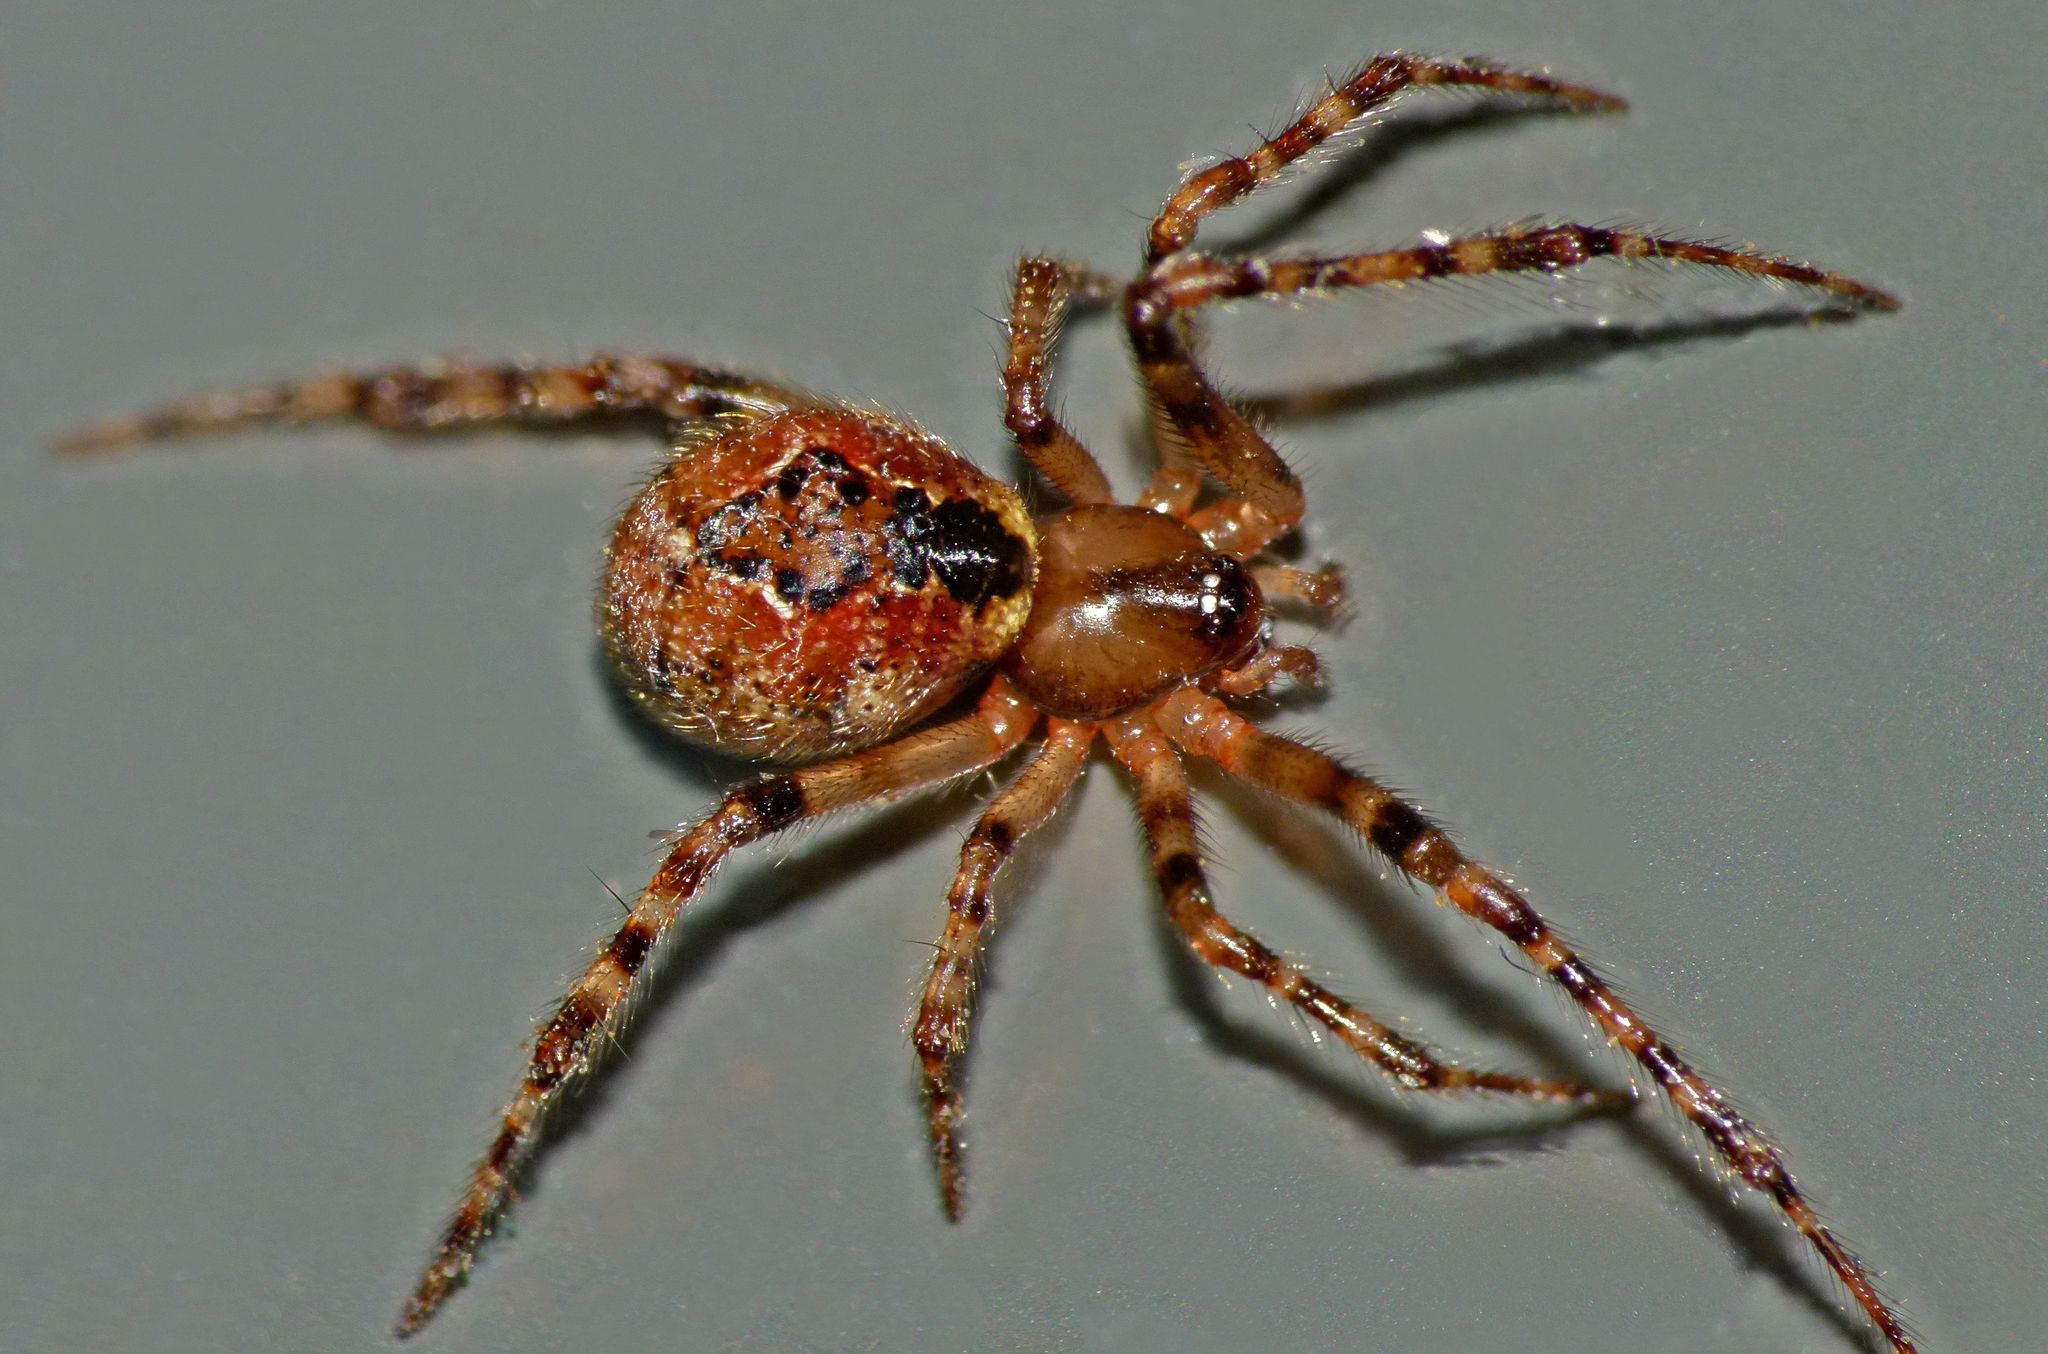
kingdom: Animalia
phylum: Arthropoda
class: Arachnida
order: Araneae
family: Theridiidae
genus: Cryptachaea
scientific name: Cryptachaea veruculata
